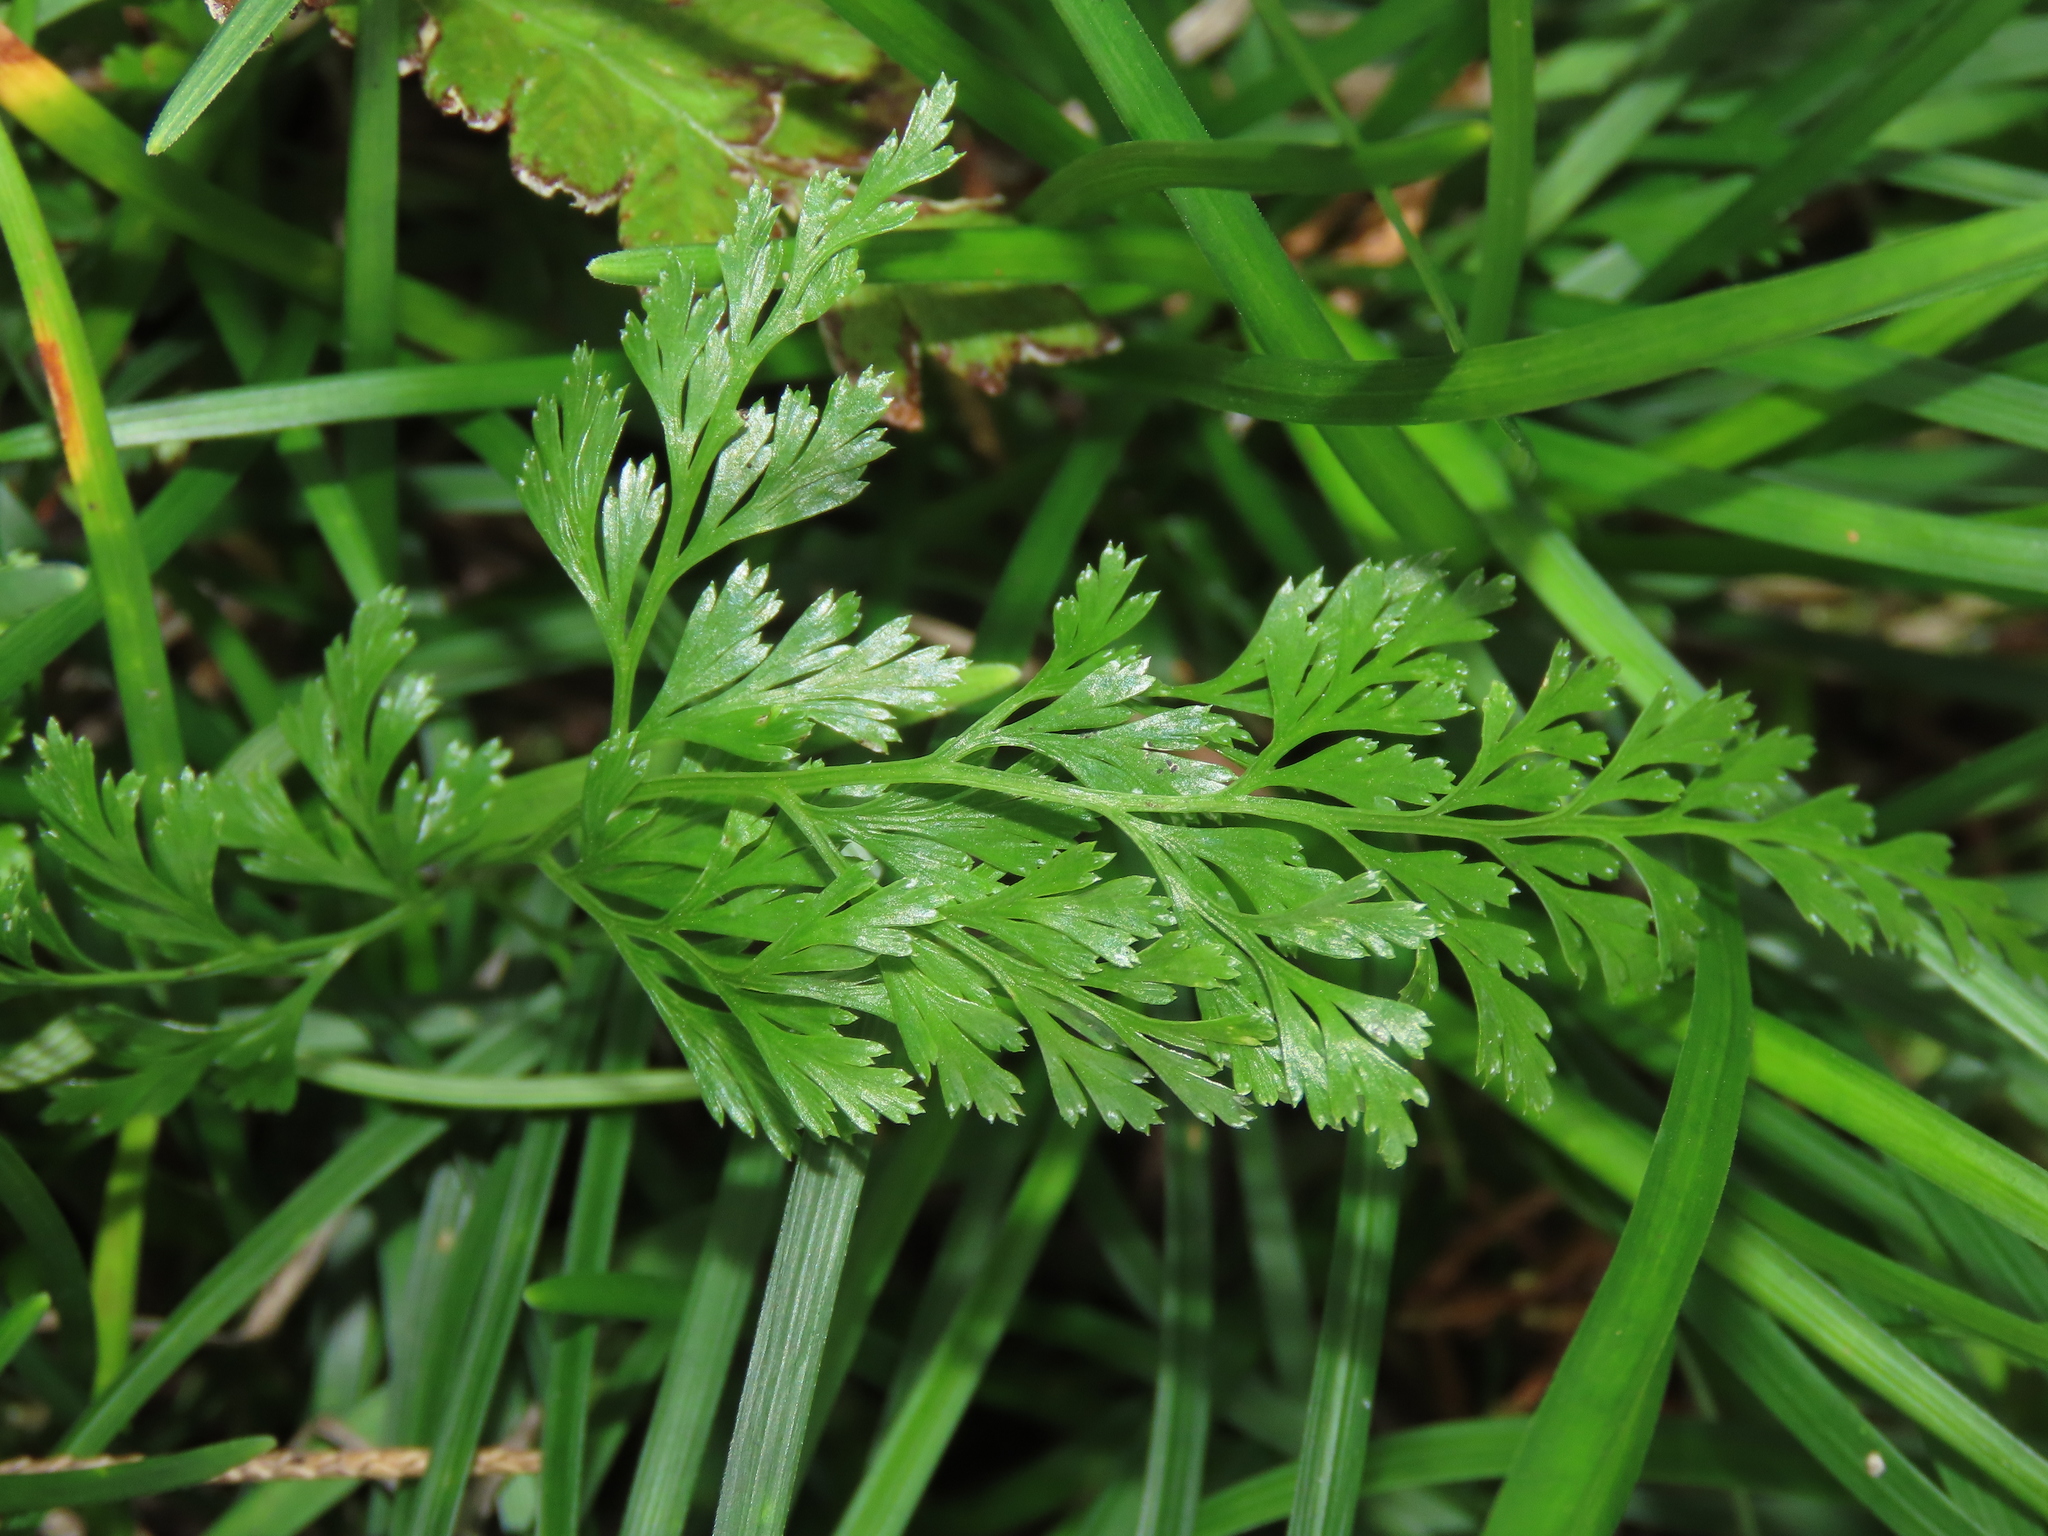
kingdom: Plantae
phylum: Tracheophyta
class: Polypodiopsida
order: Polypodiales
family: Pteridaceae
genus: Onychium
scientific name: Onychium japonicum
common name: Carrot fern
